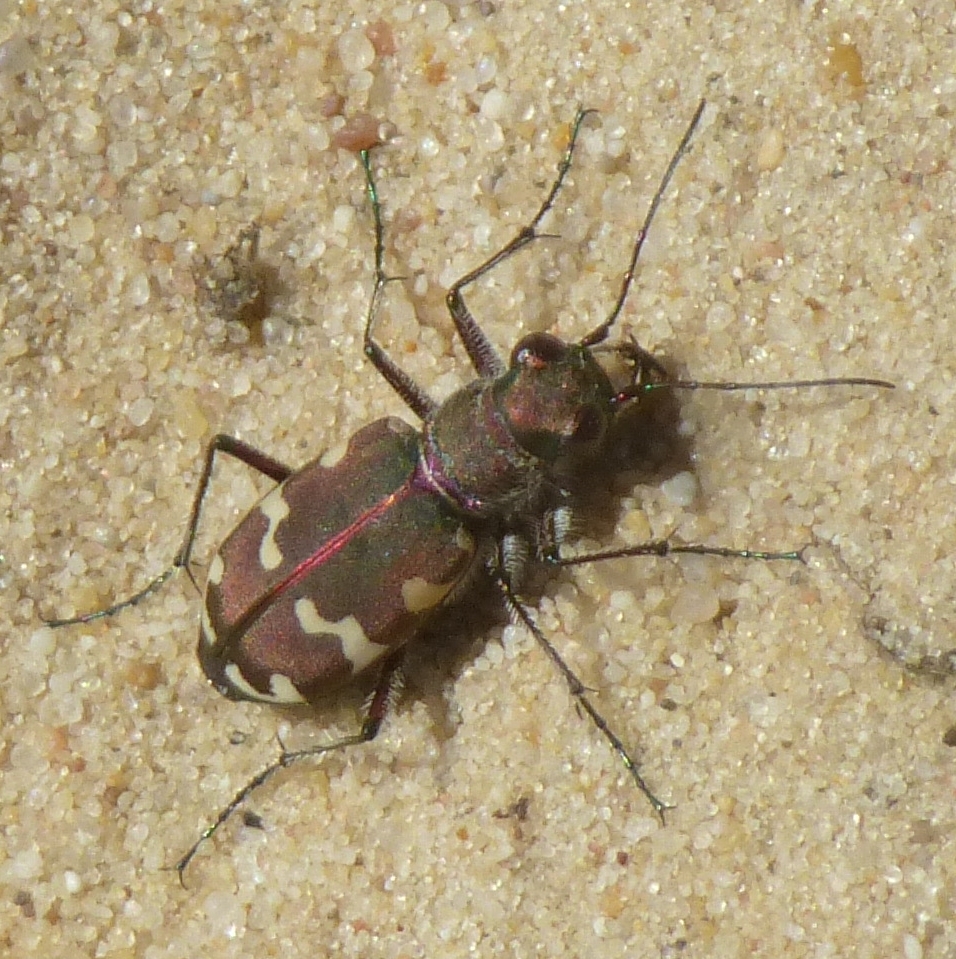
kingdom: Animalia
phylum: Arthropoda
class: Insecta
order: Coleoptera
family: Carabidae
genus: Cicindela
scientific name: Cicindela hybrida
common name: Northern dune tiger beetle
